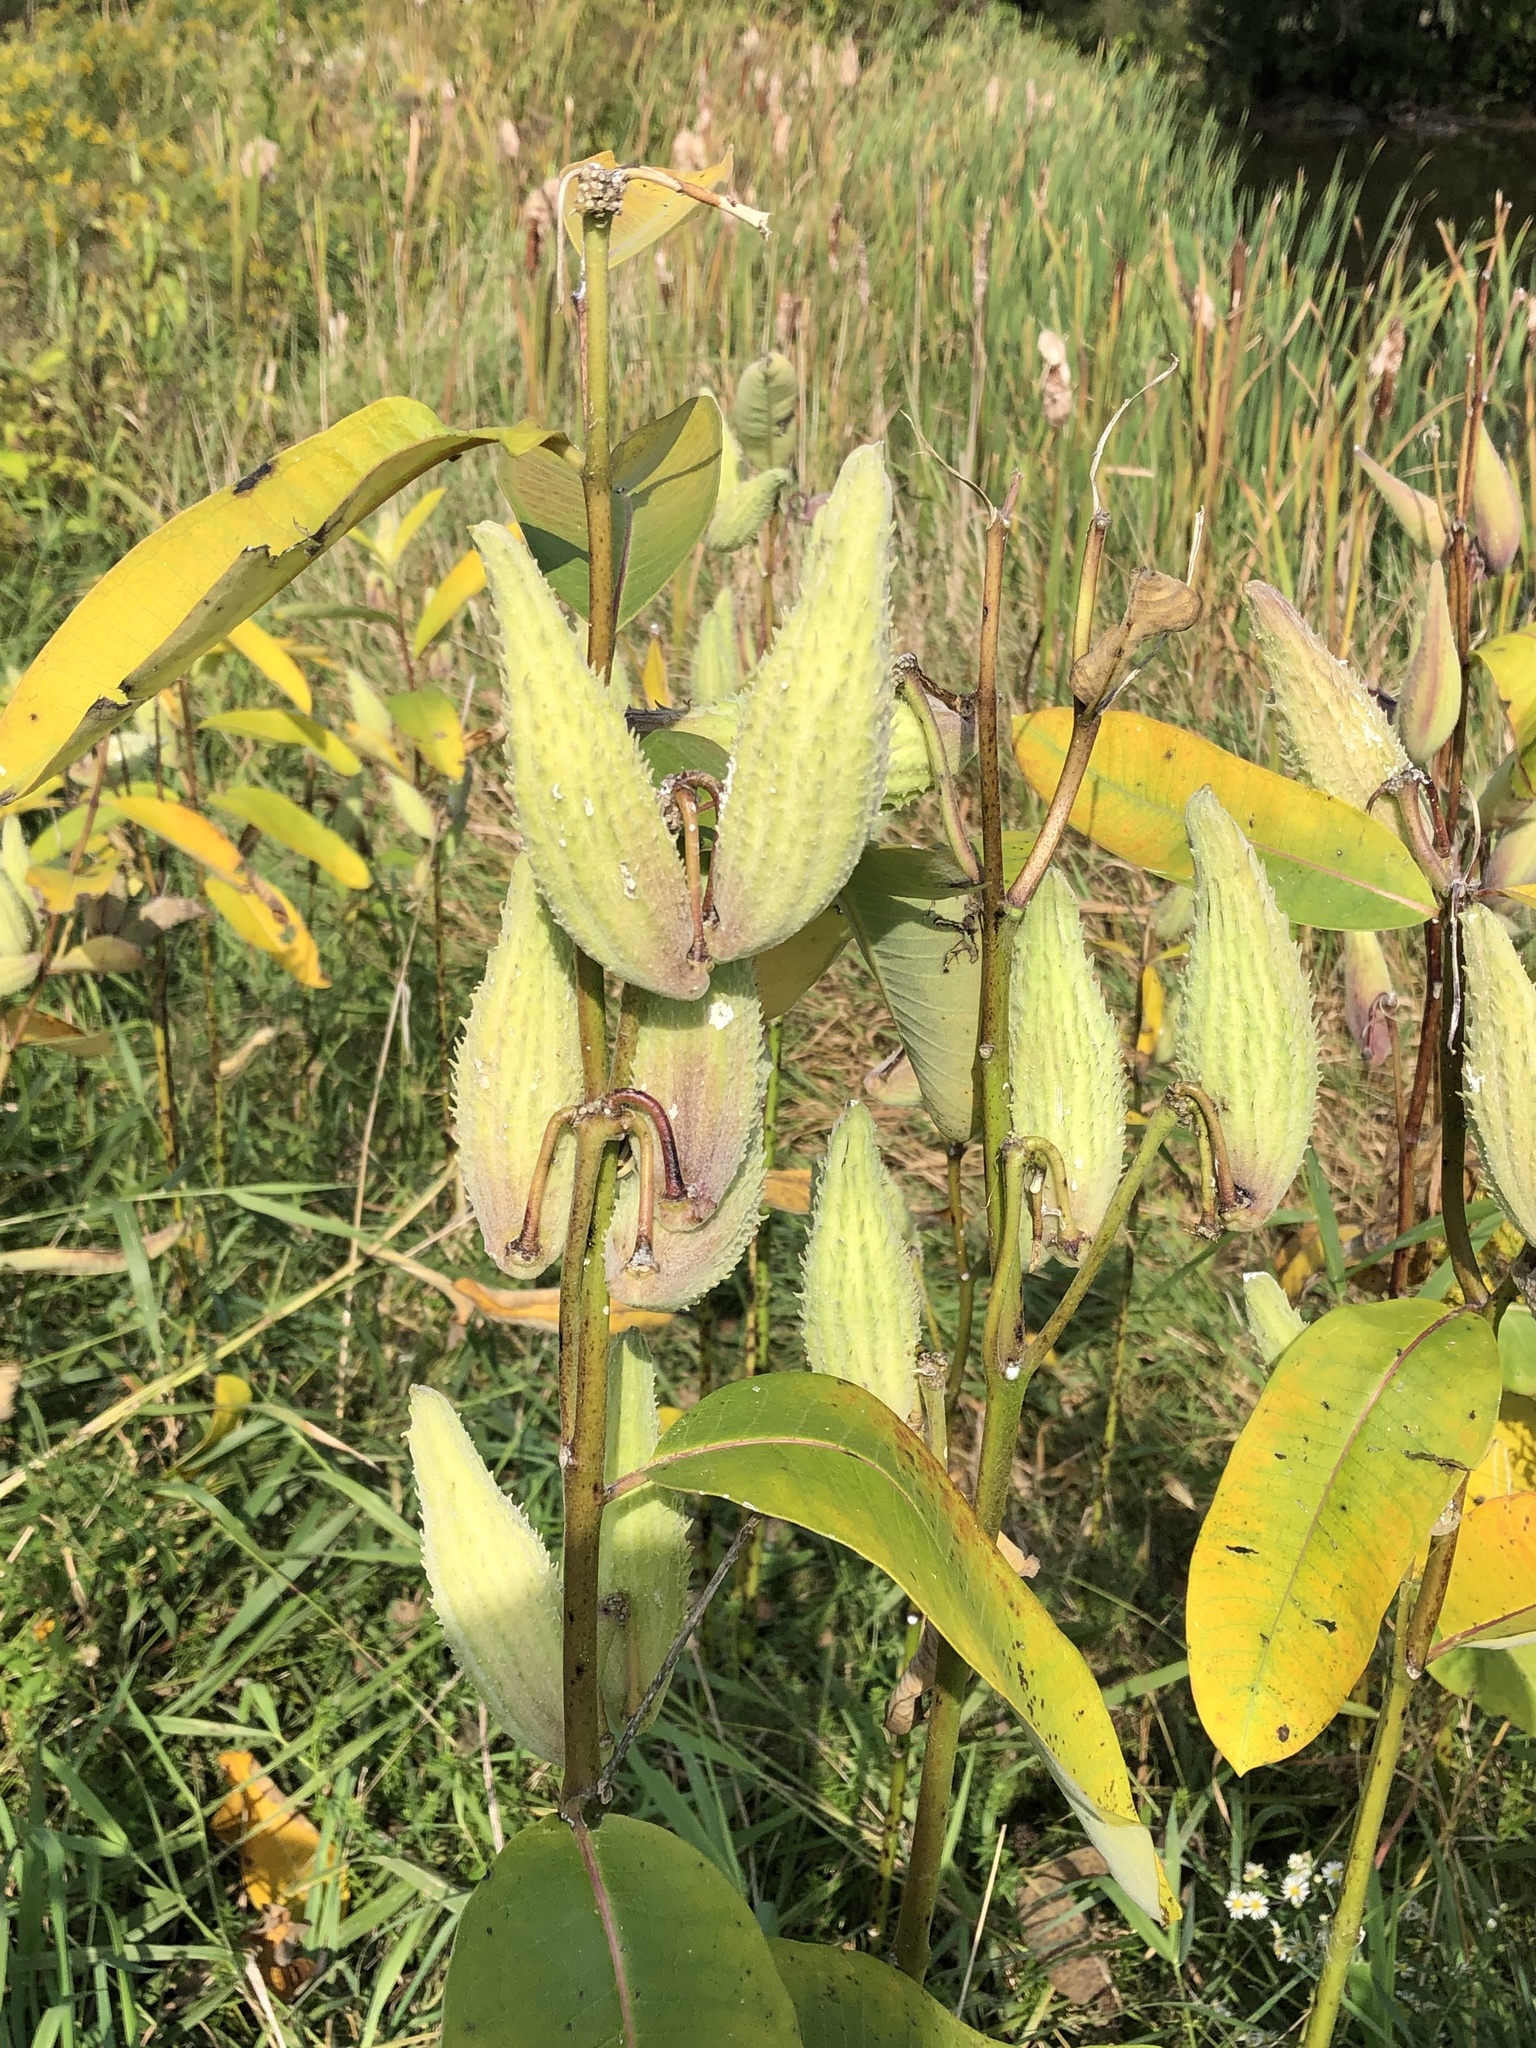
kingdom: Plantae
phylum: Tracheophyta
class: Magnoliopsida
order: Gentianales
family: Apocynaceae
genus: Asclepias
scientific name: Asclepias syriaca
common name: Common milkweed
